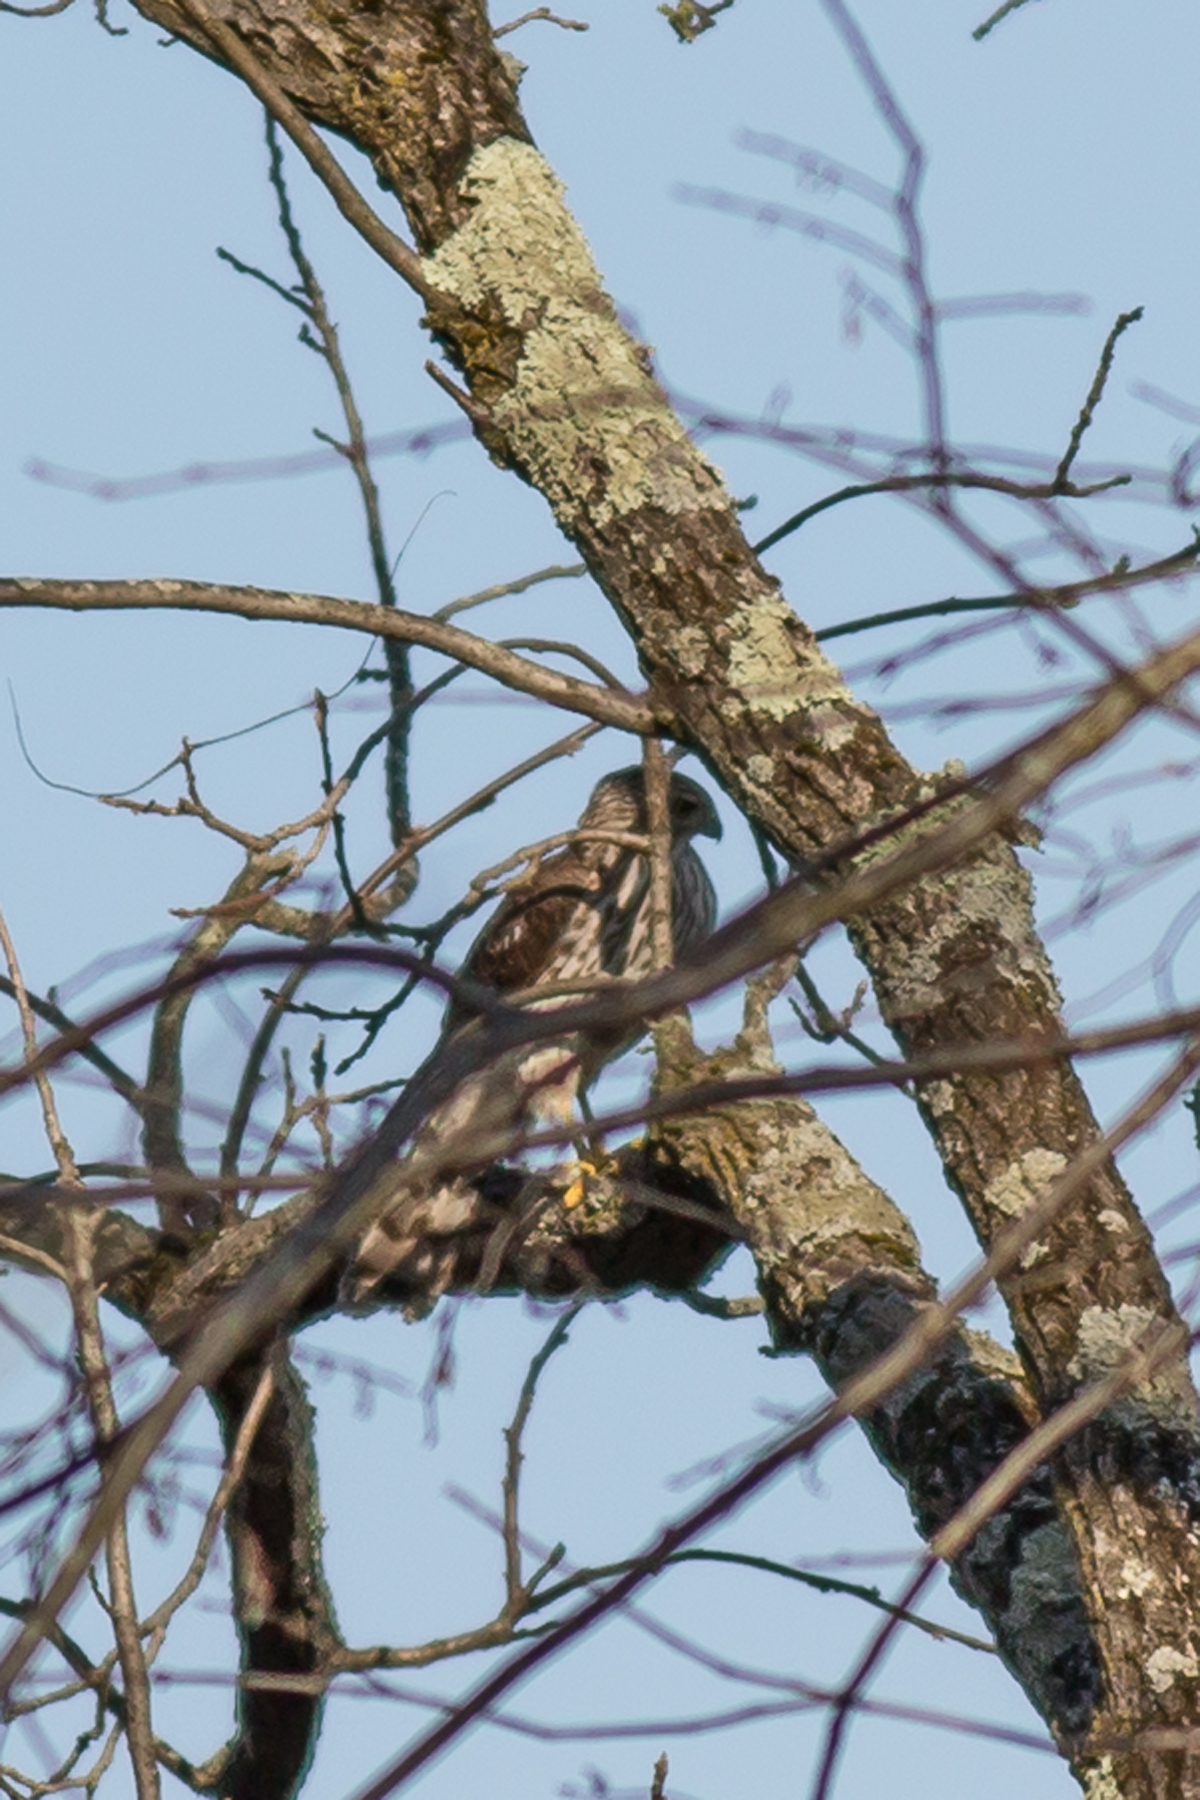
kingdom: Animalia
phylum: Chordata
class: Aves
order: Accipitriformes
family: Accipitridae
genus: Accipiter
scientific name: Accipiter cooperii
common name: Cooper's hawk
